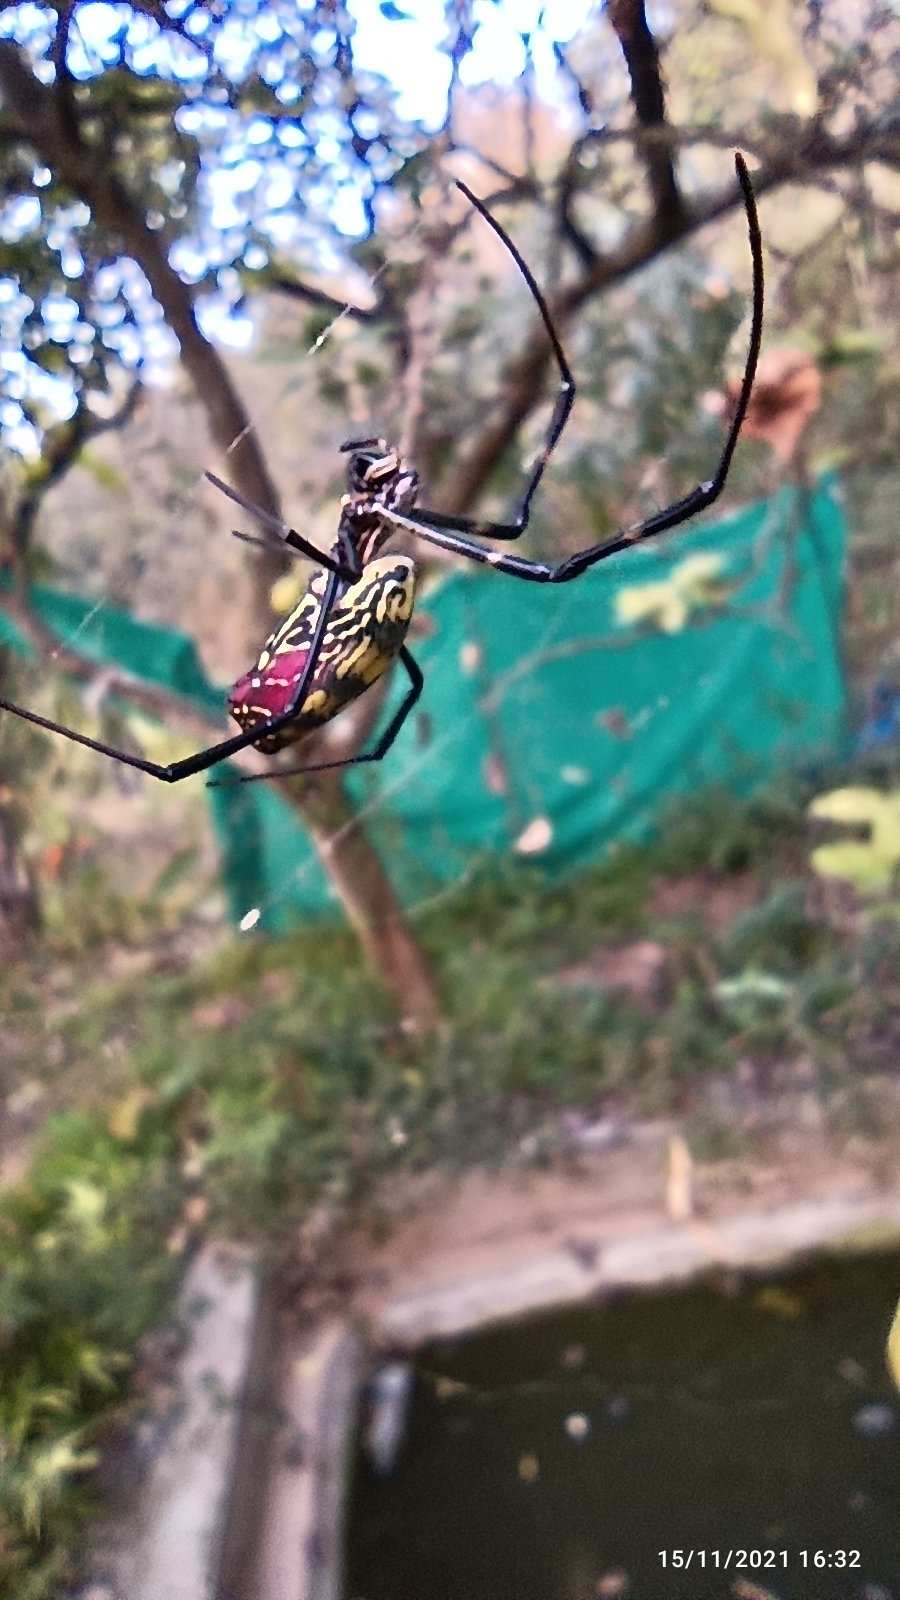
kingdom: Animalia
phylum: Arthropoda
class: Arachnida
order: Araneae
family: Araneidae
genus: Trichonephila
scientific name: Trichonephila clavata
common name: Jorō spider
